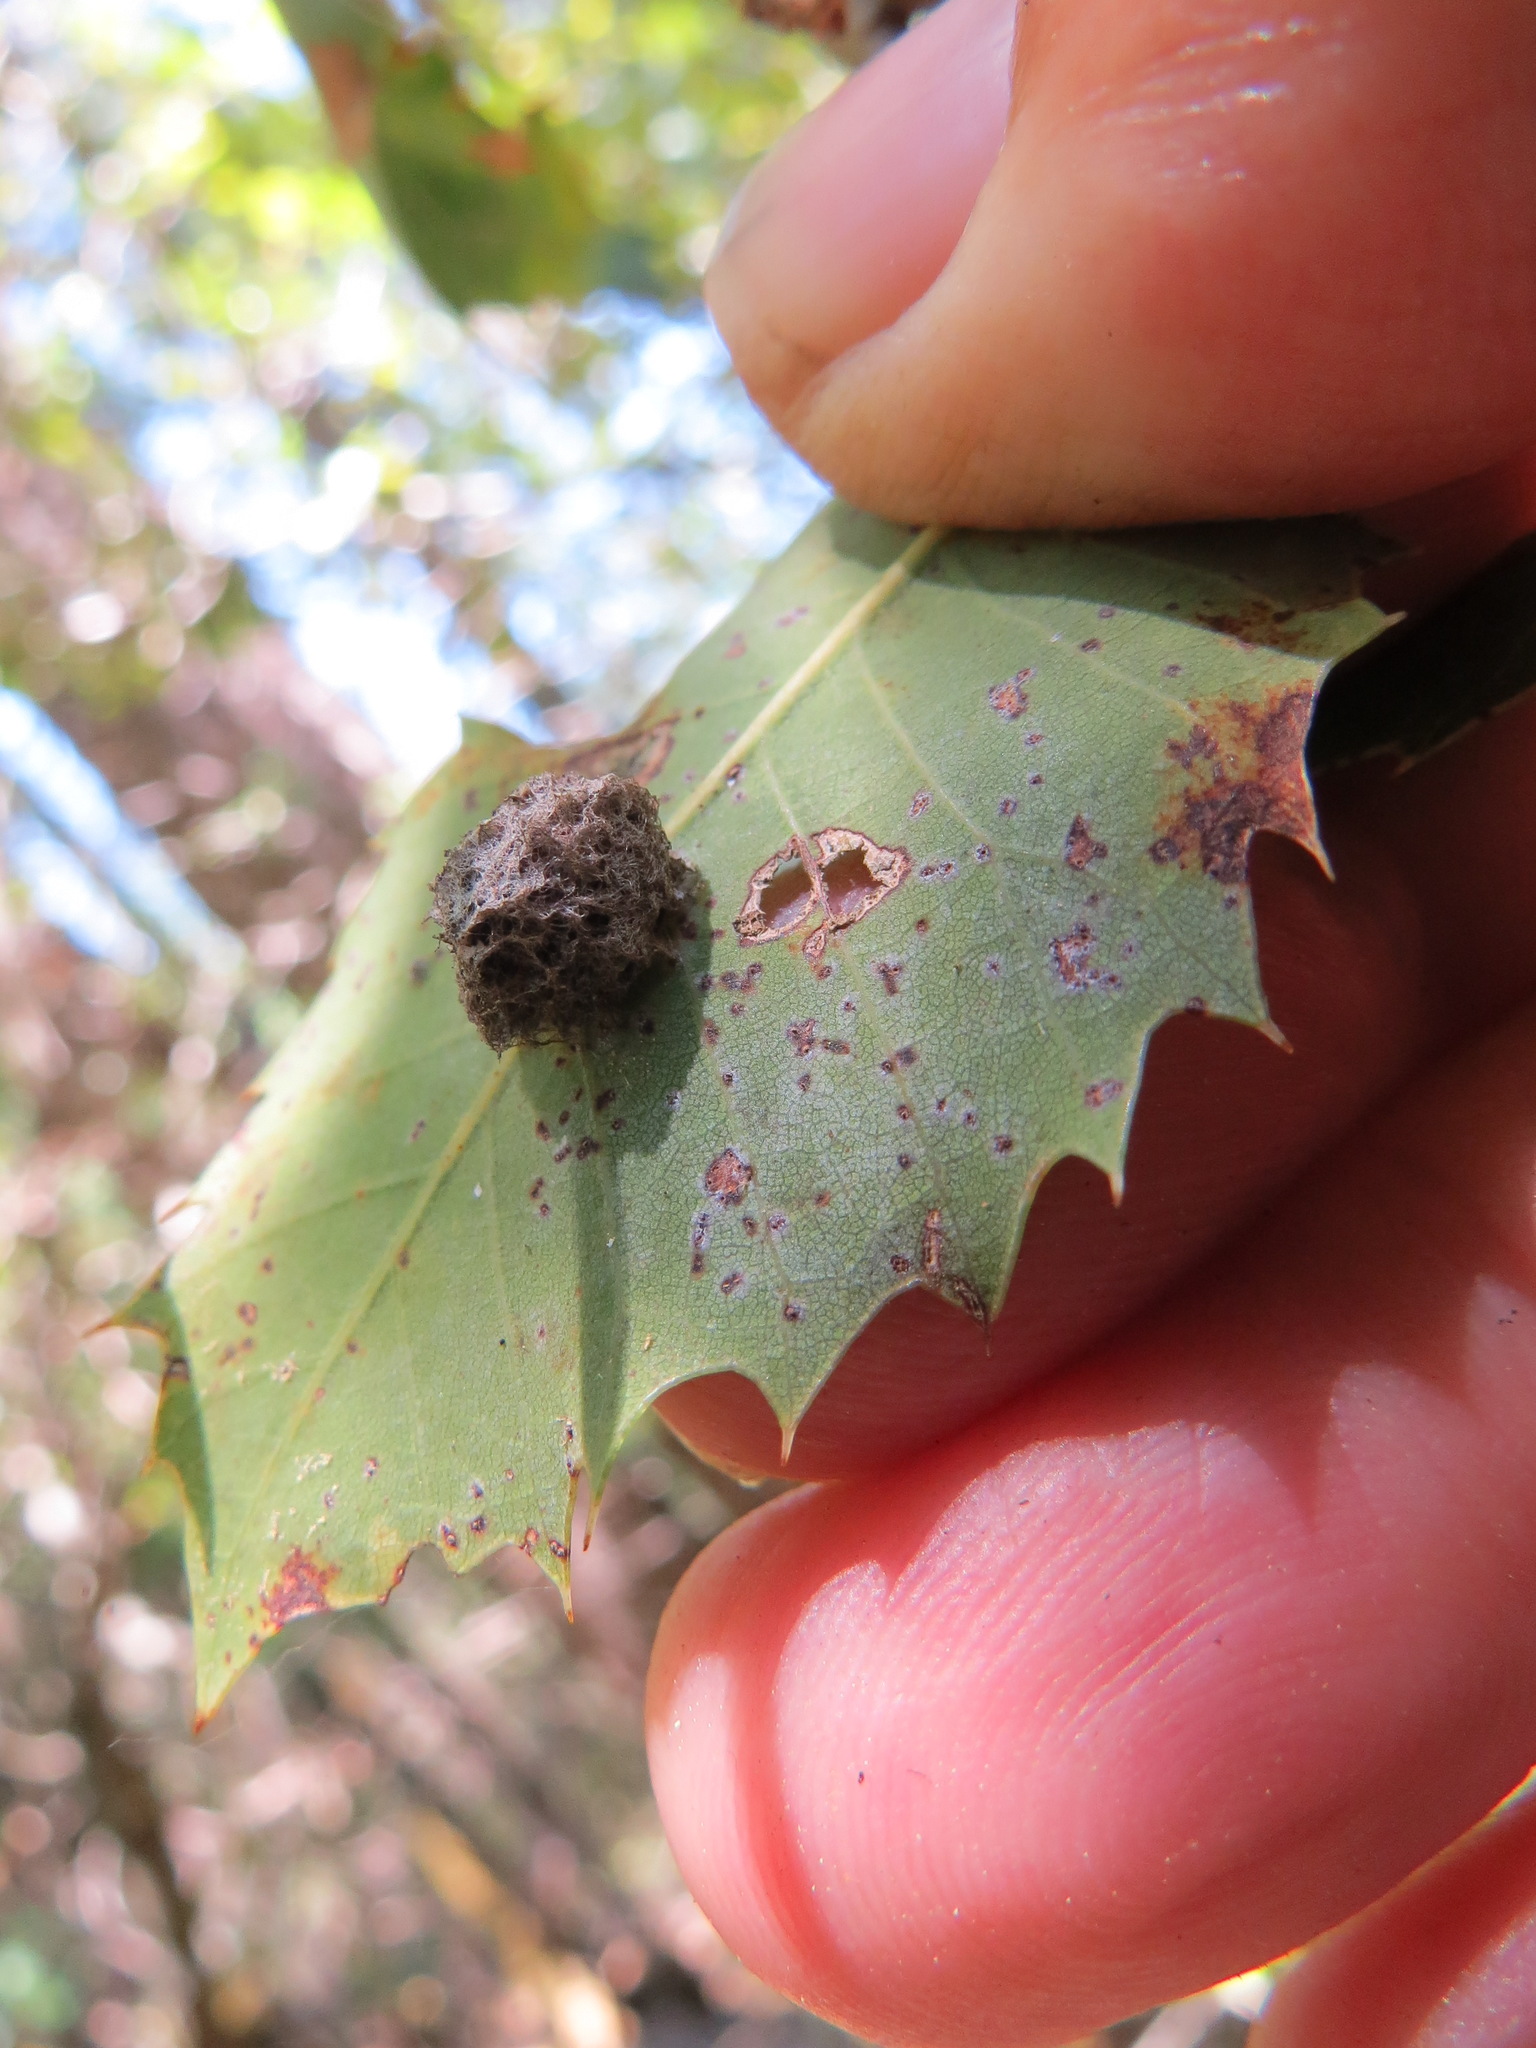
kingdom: Animalia
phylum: Arthropoda
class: Insecta
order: Hymenoptera
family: Cynipidae
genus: Disholandricus
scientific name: Disholandricus
